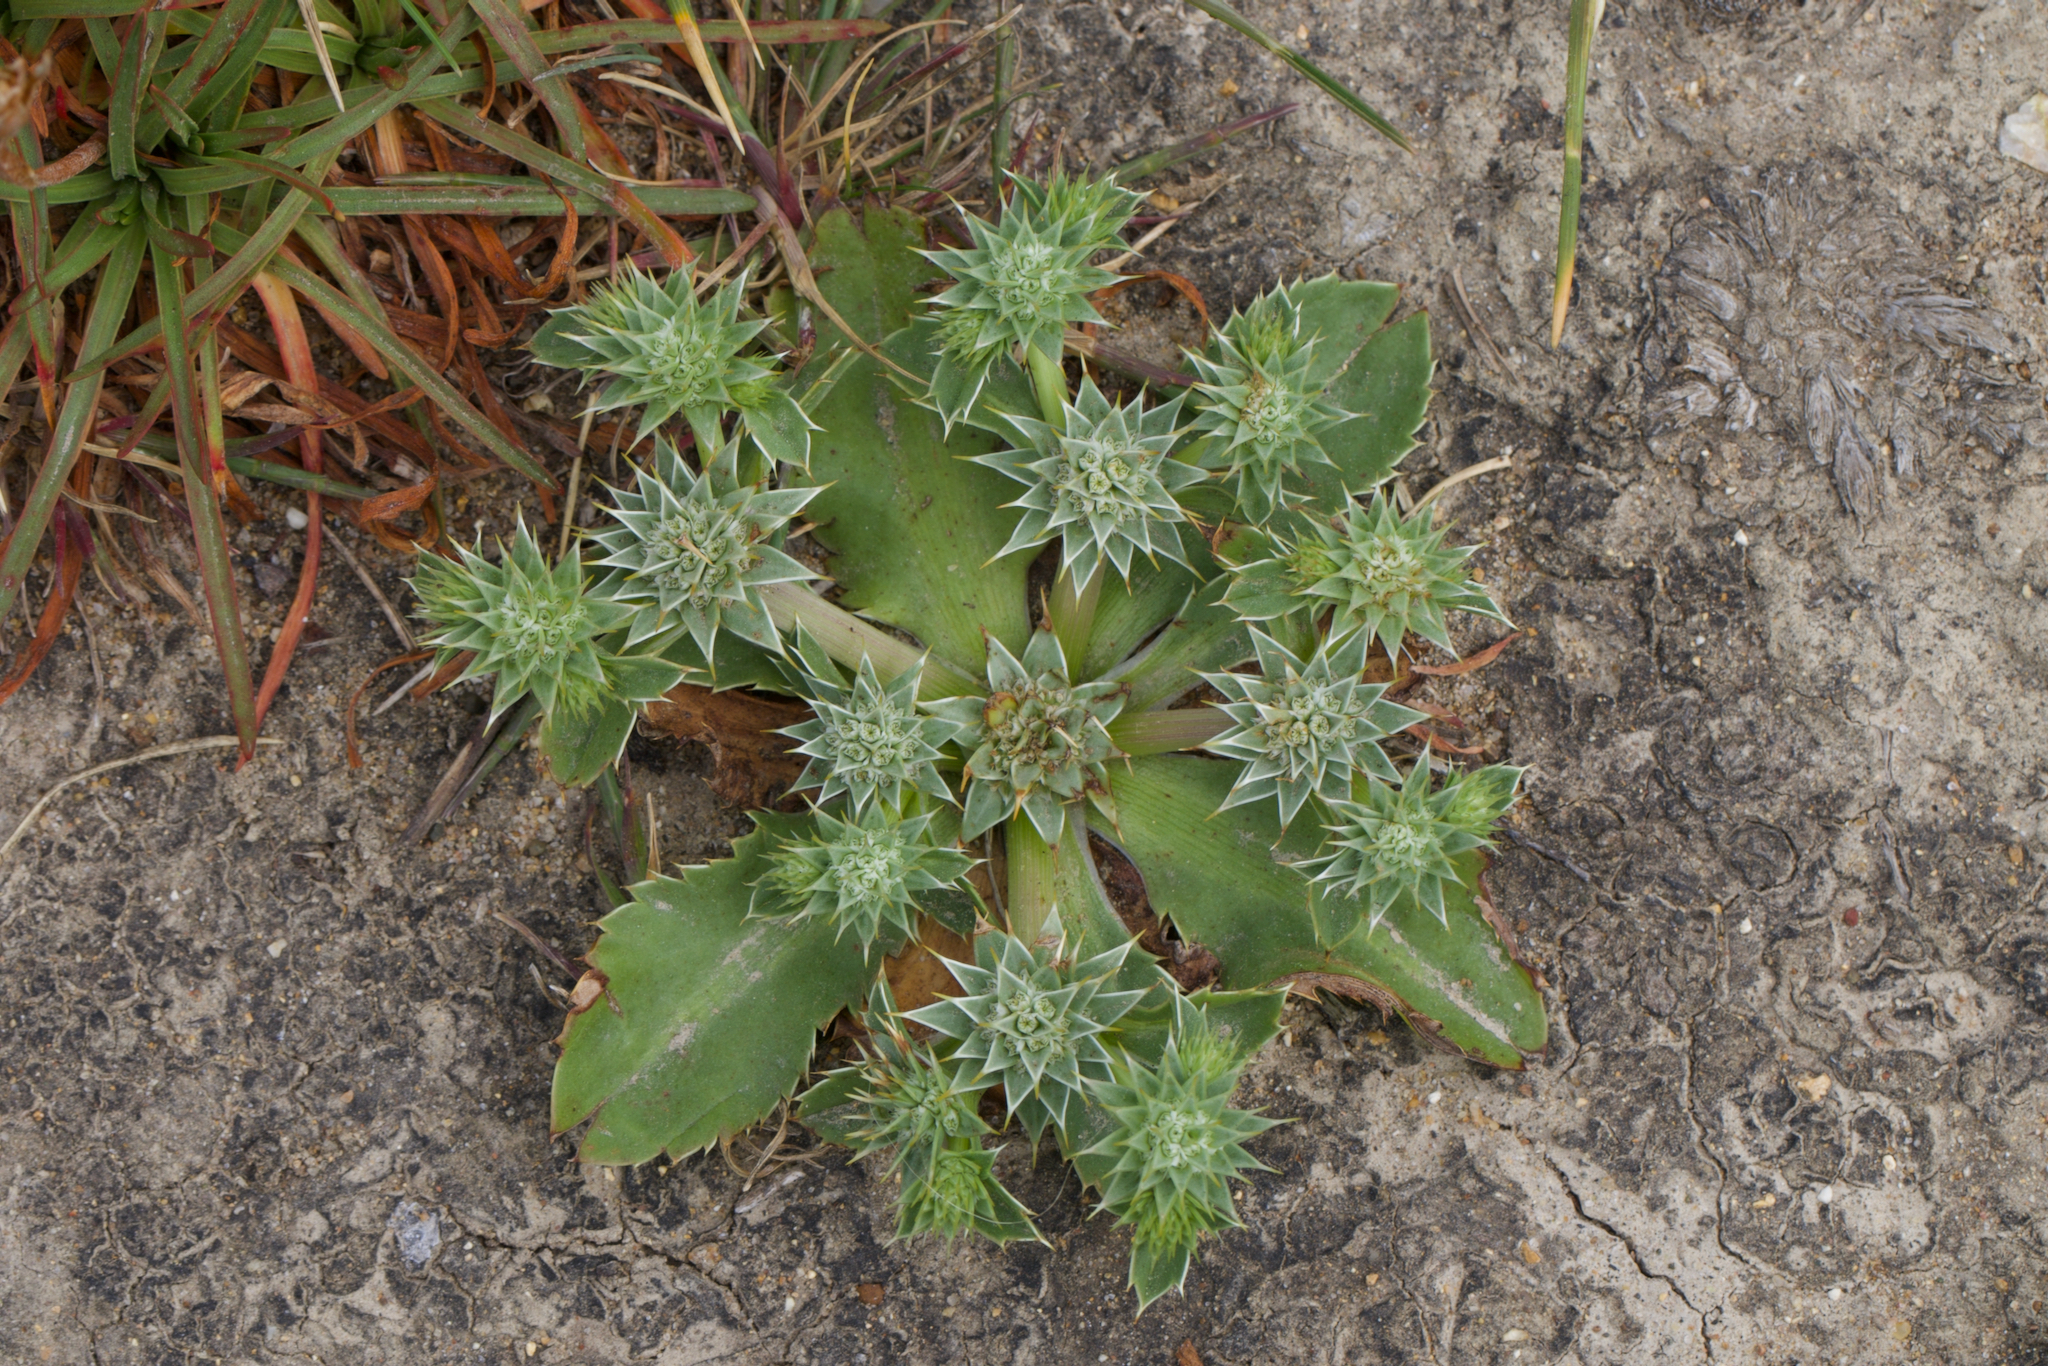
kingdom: Plantae
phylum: Tracheophyta
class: Magnoliopsida
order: Apiales
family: Apiaceae
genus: Eryngium
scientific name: Eryngium armatum
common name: Coyote thistle
